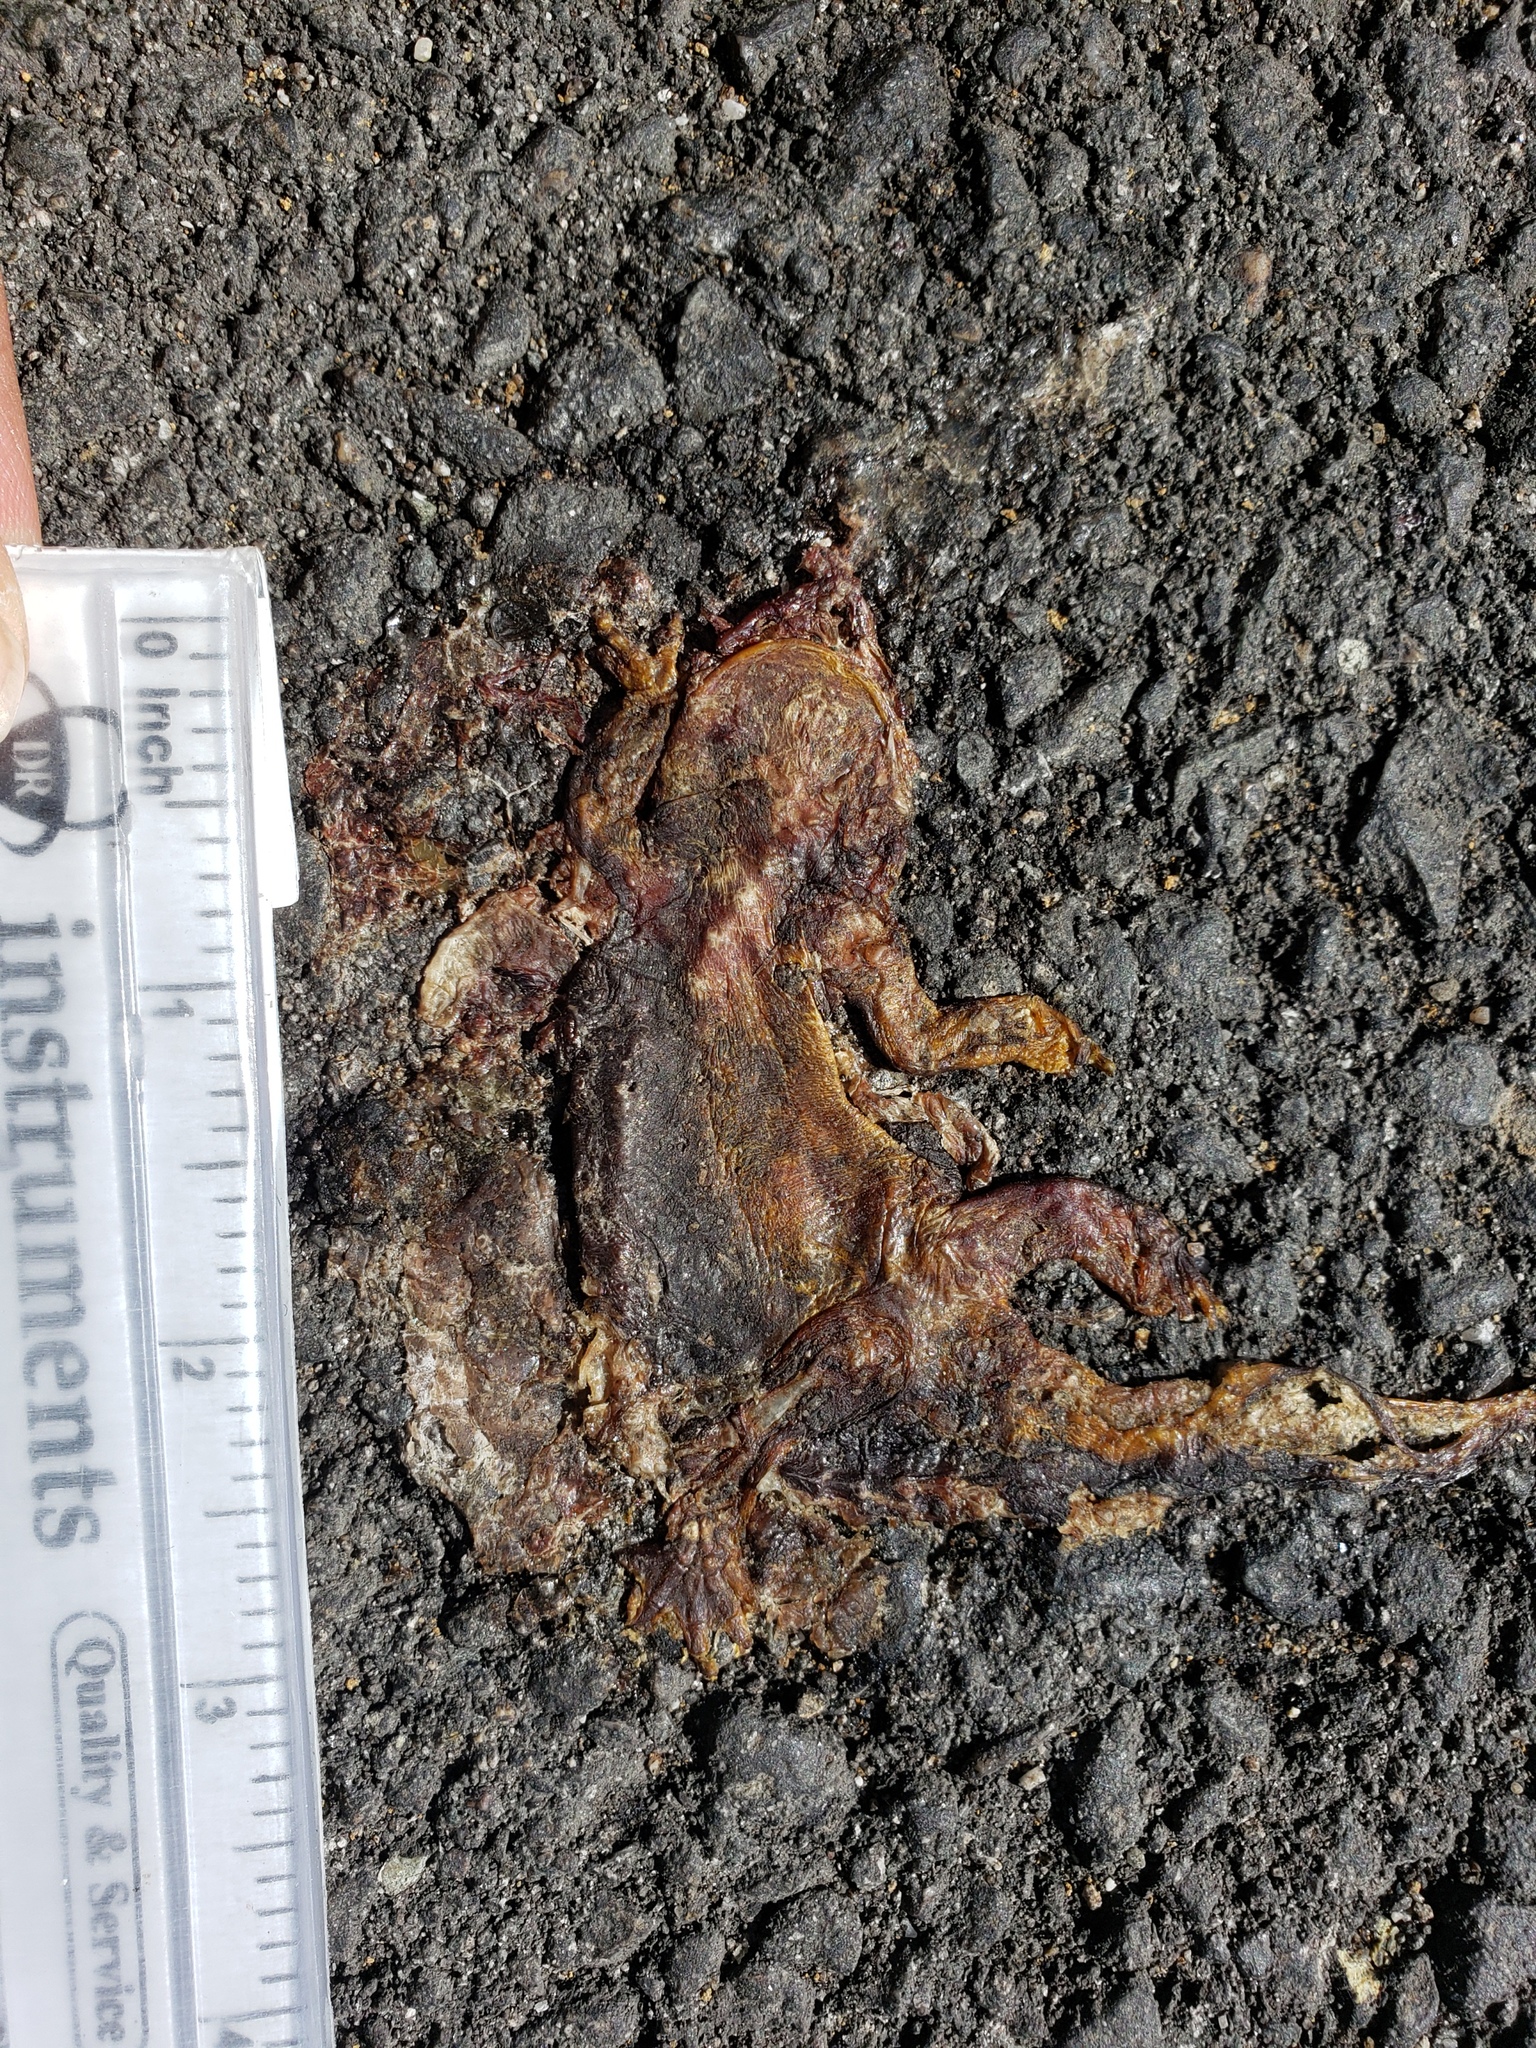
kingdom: Animalia
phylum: Chordata
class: Amphibia
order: Caudata
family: Salamandridae
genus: Taricha
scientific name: Taricha
